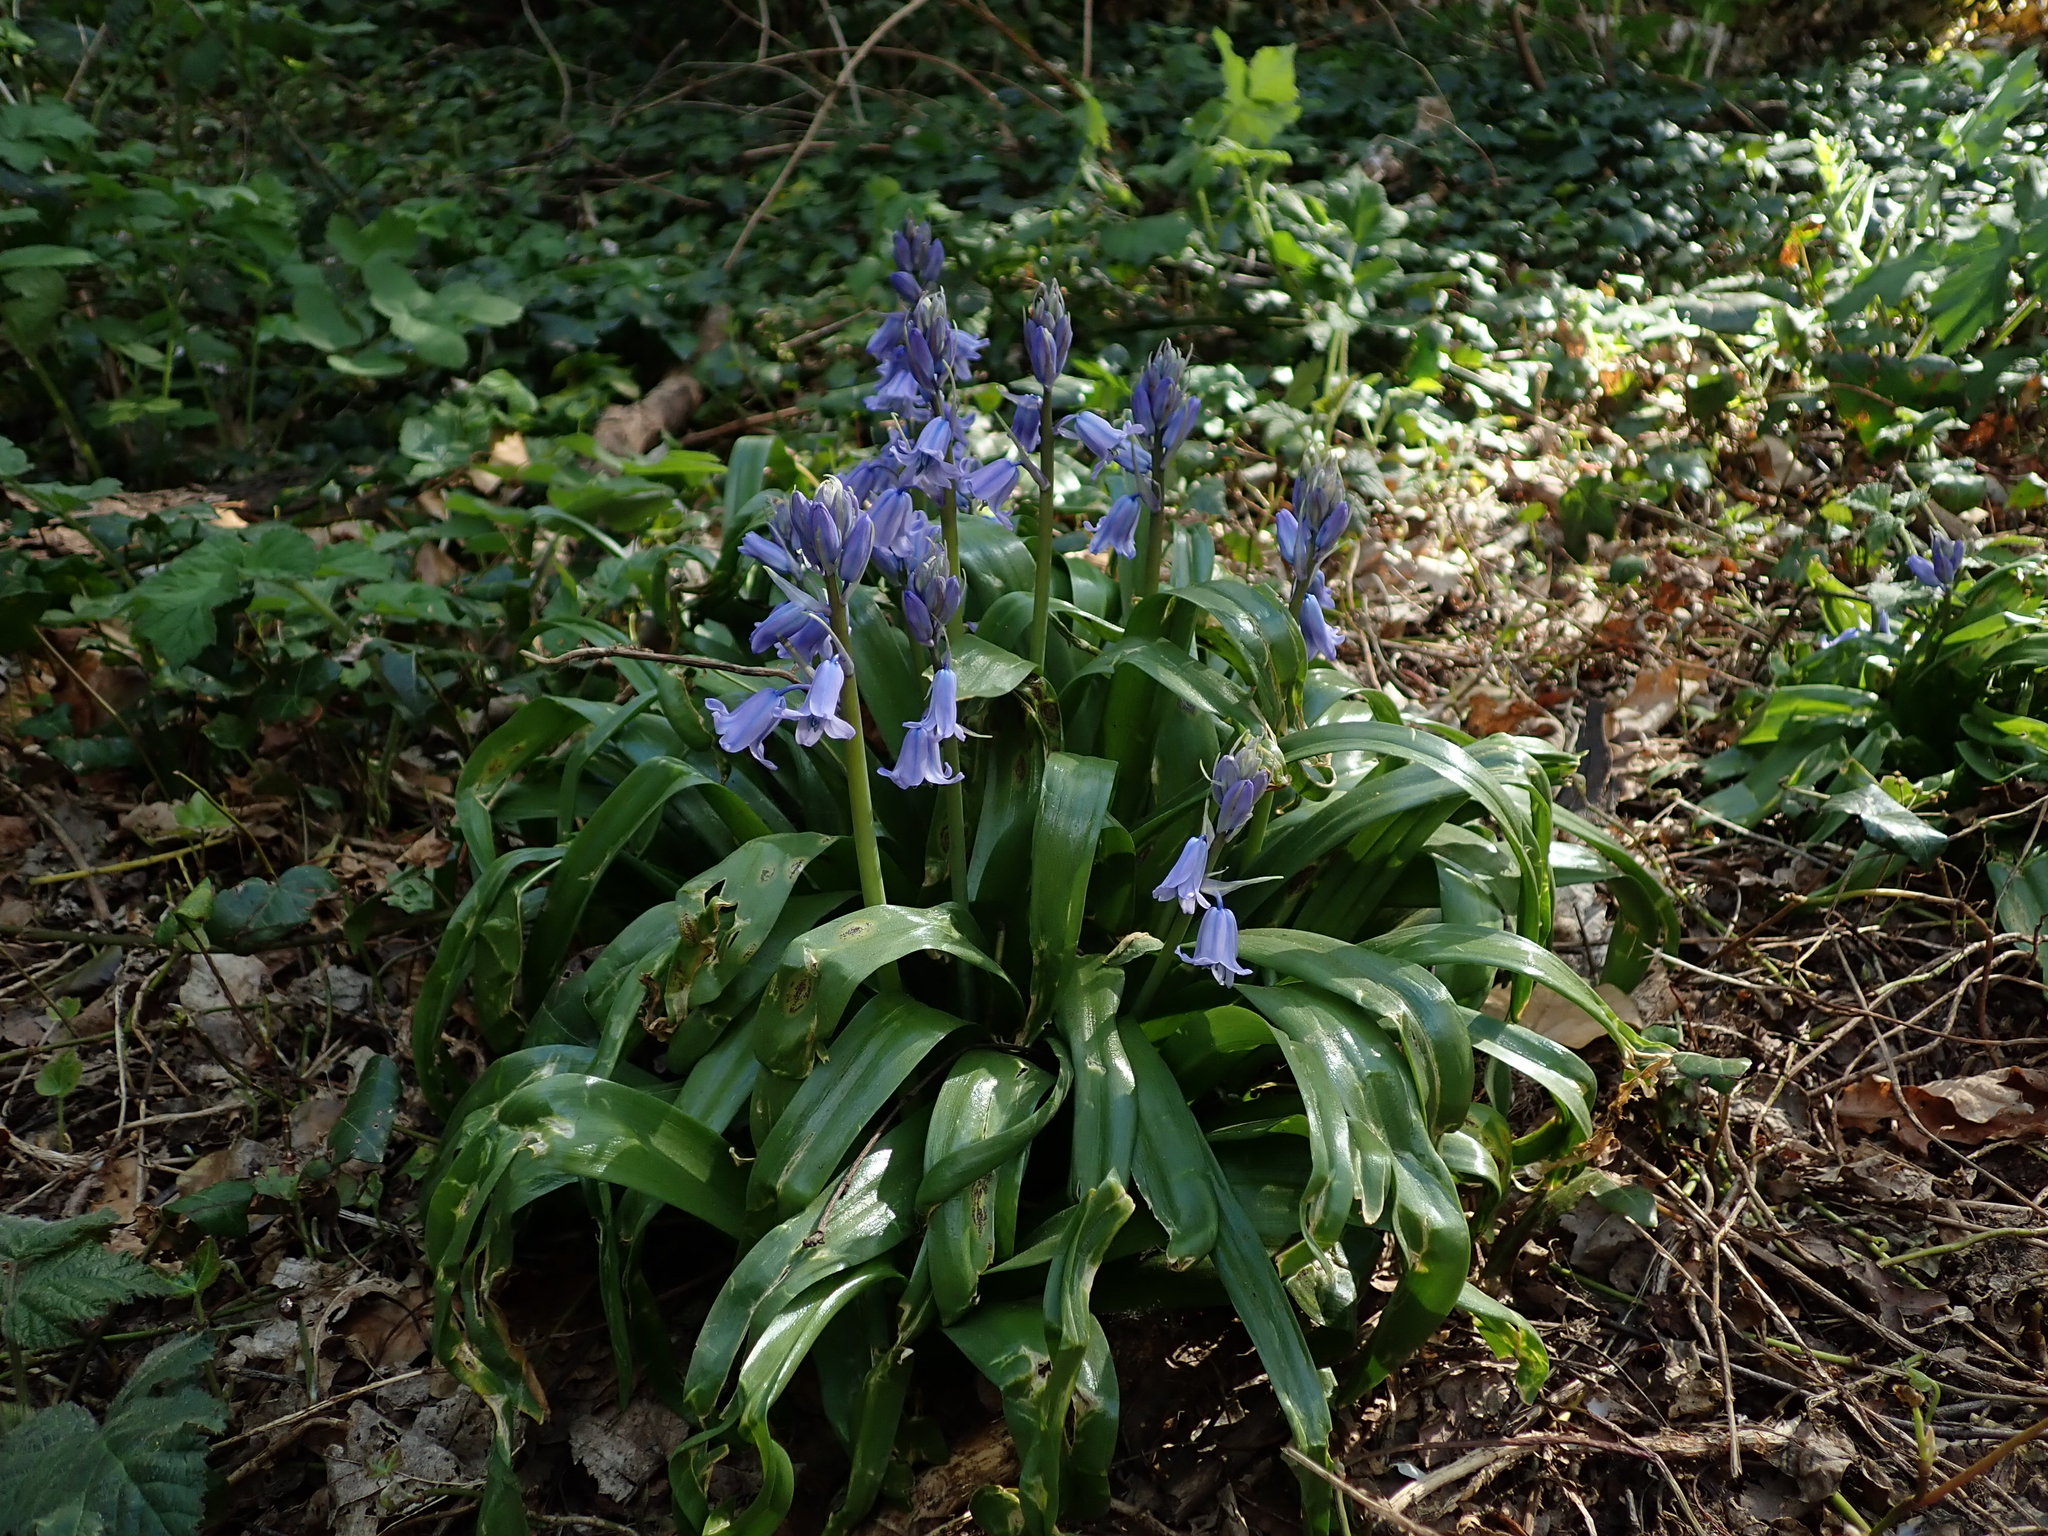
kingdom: Plantae
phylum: Tracheophyta
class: Liliopsida
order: Asparagales
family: Asparagaceae
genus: Hyacinthoides
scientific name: Hyacinthoides hispanica
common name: Spanish bluebell
